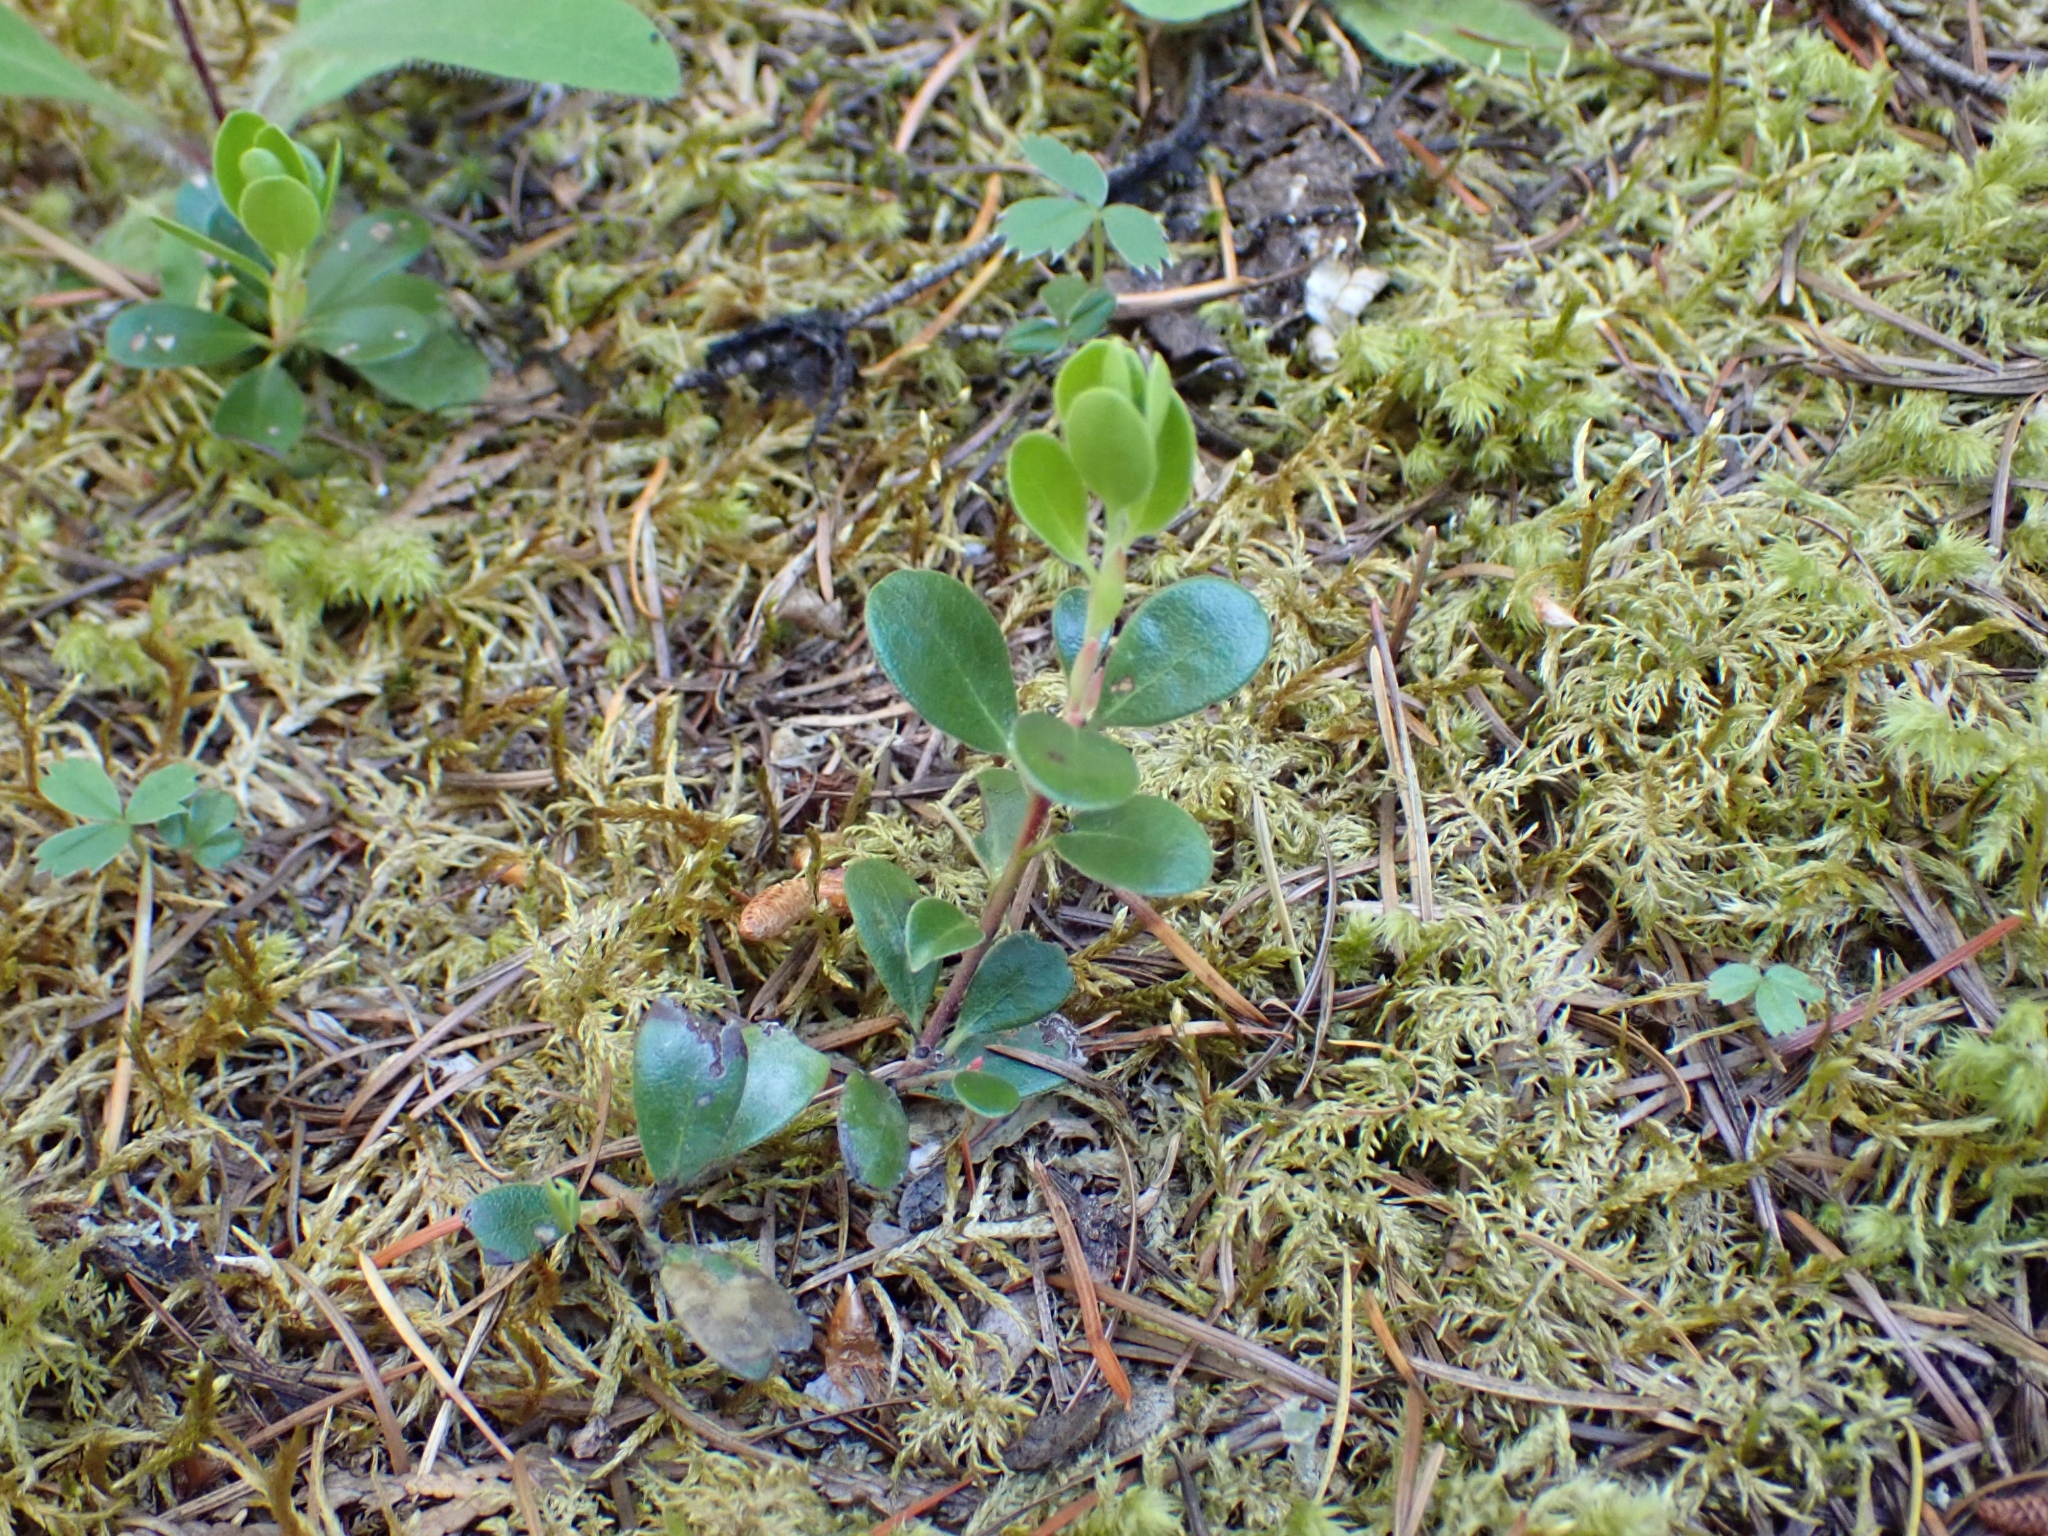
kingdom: Plantae
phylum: Tracheophyta
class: Magnoliopsida
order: Ericales
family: Ericaceae
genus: Arctostaphylos
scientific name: Arctostaphylos uva-ursi
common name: Bearberry
